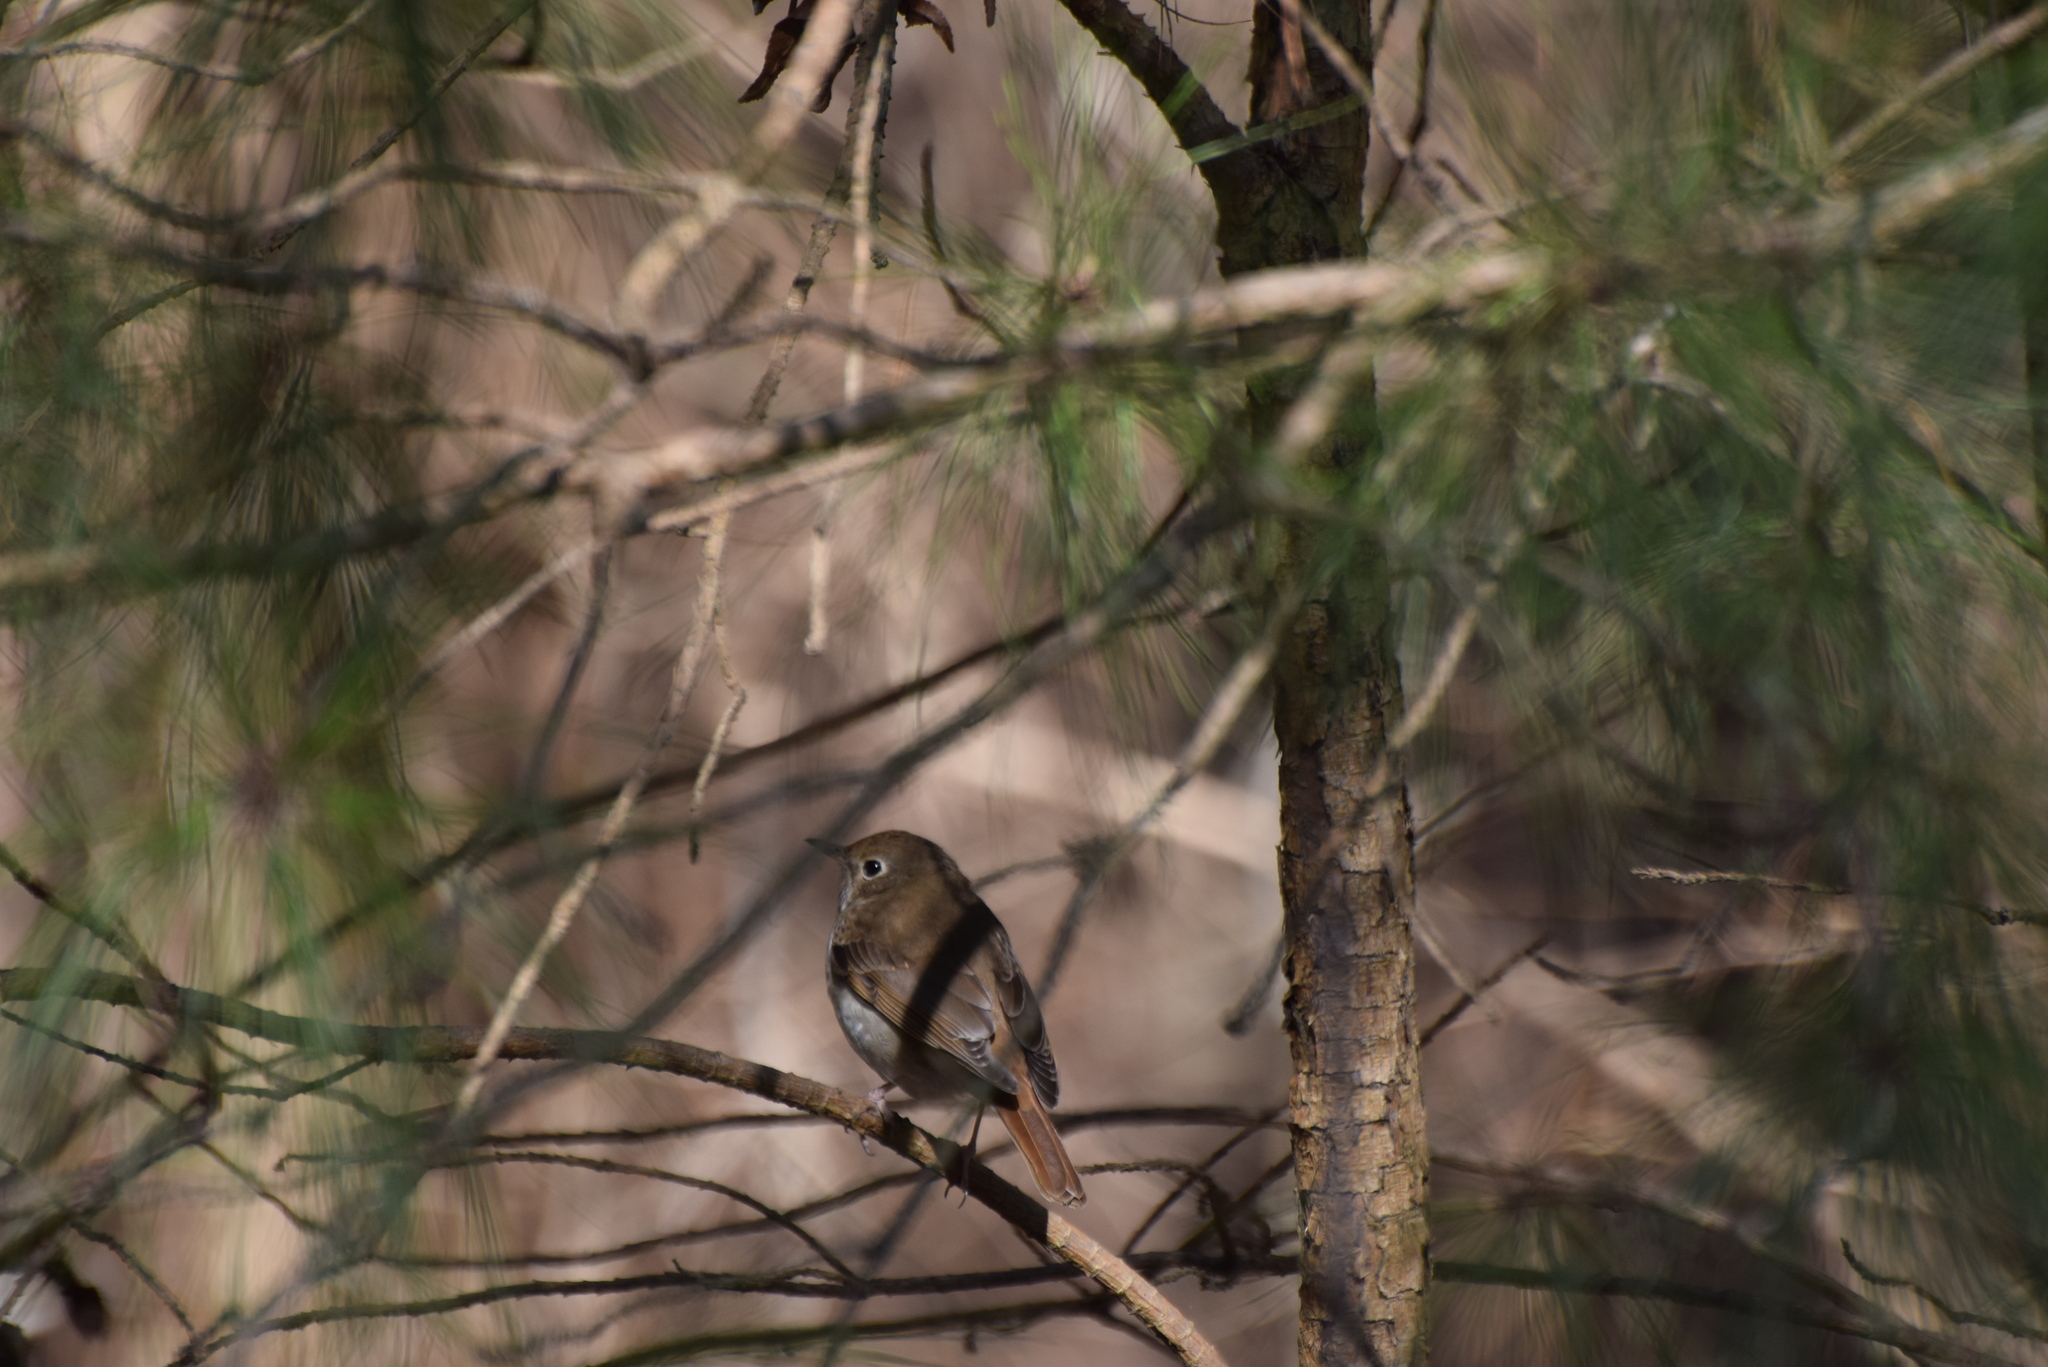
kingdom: Animalia
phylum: Chordata
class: Aves
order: Passeriformes
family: Turdidae
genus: Catharus
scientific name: Catharus guttatus
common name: Hermit thrush
